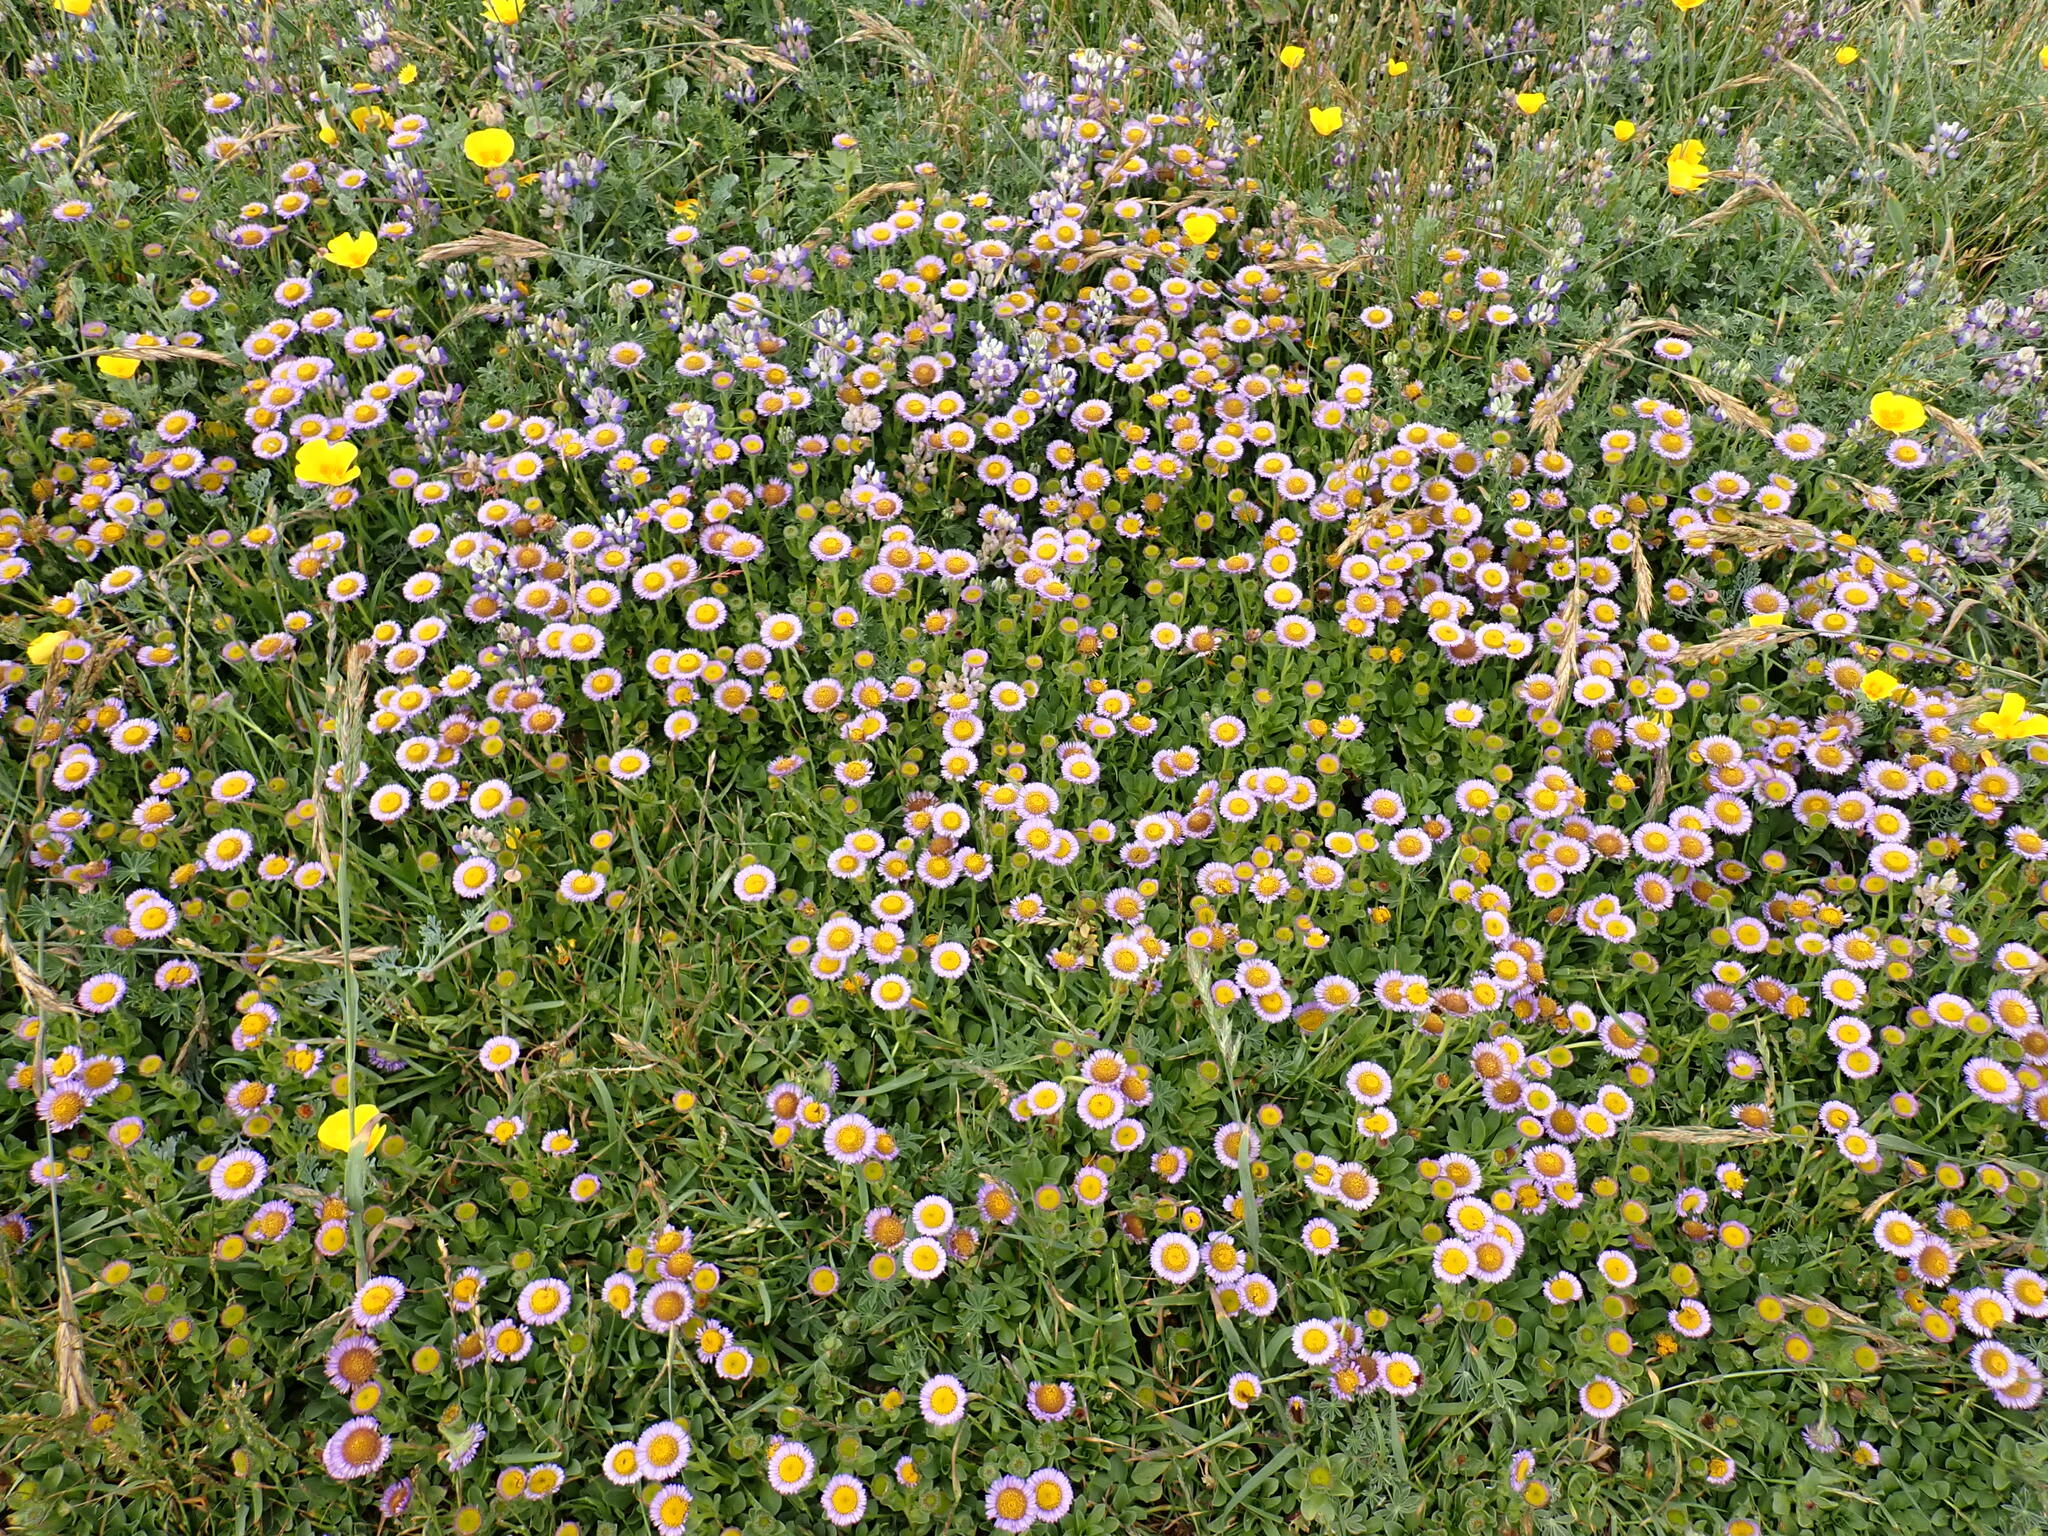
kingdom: Plantae
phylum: Tracheophyta
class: Magnoliopsida
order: Asterales
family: Asteraceae
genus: Erigeron
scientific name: Erigeron glaucus
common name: Seaside daisy
